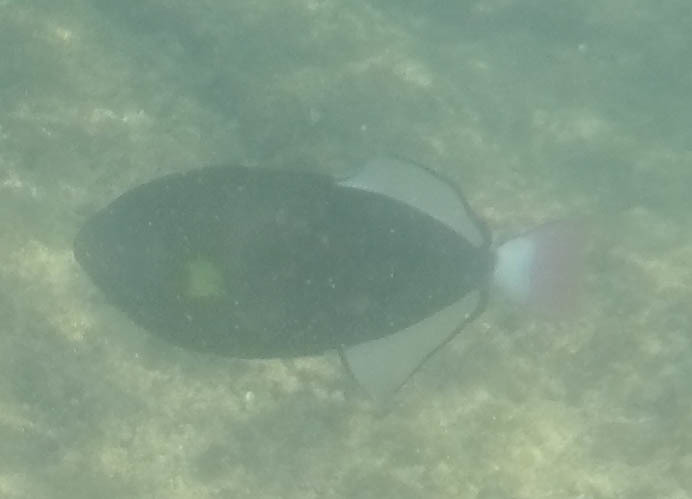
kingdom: Animalia
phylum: Chordata
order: Tetraodontiformes
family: Balistidae
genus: Melichthys
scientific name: Melichthys vidua
